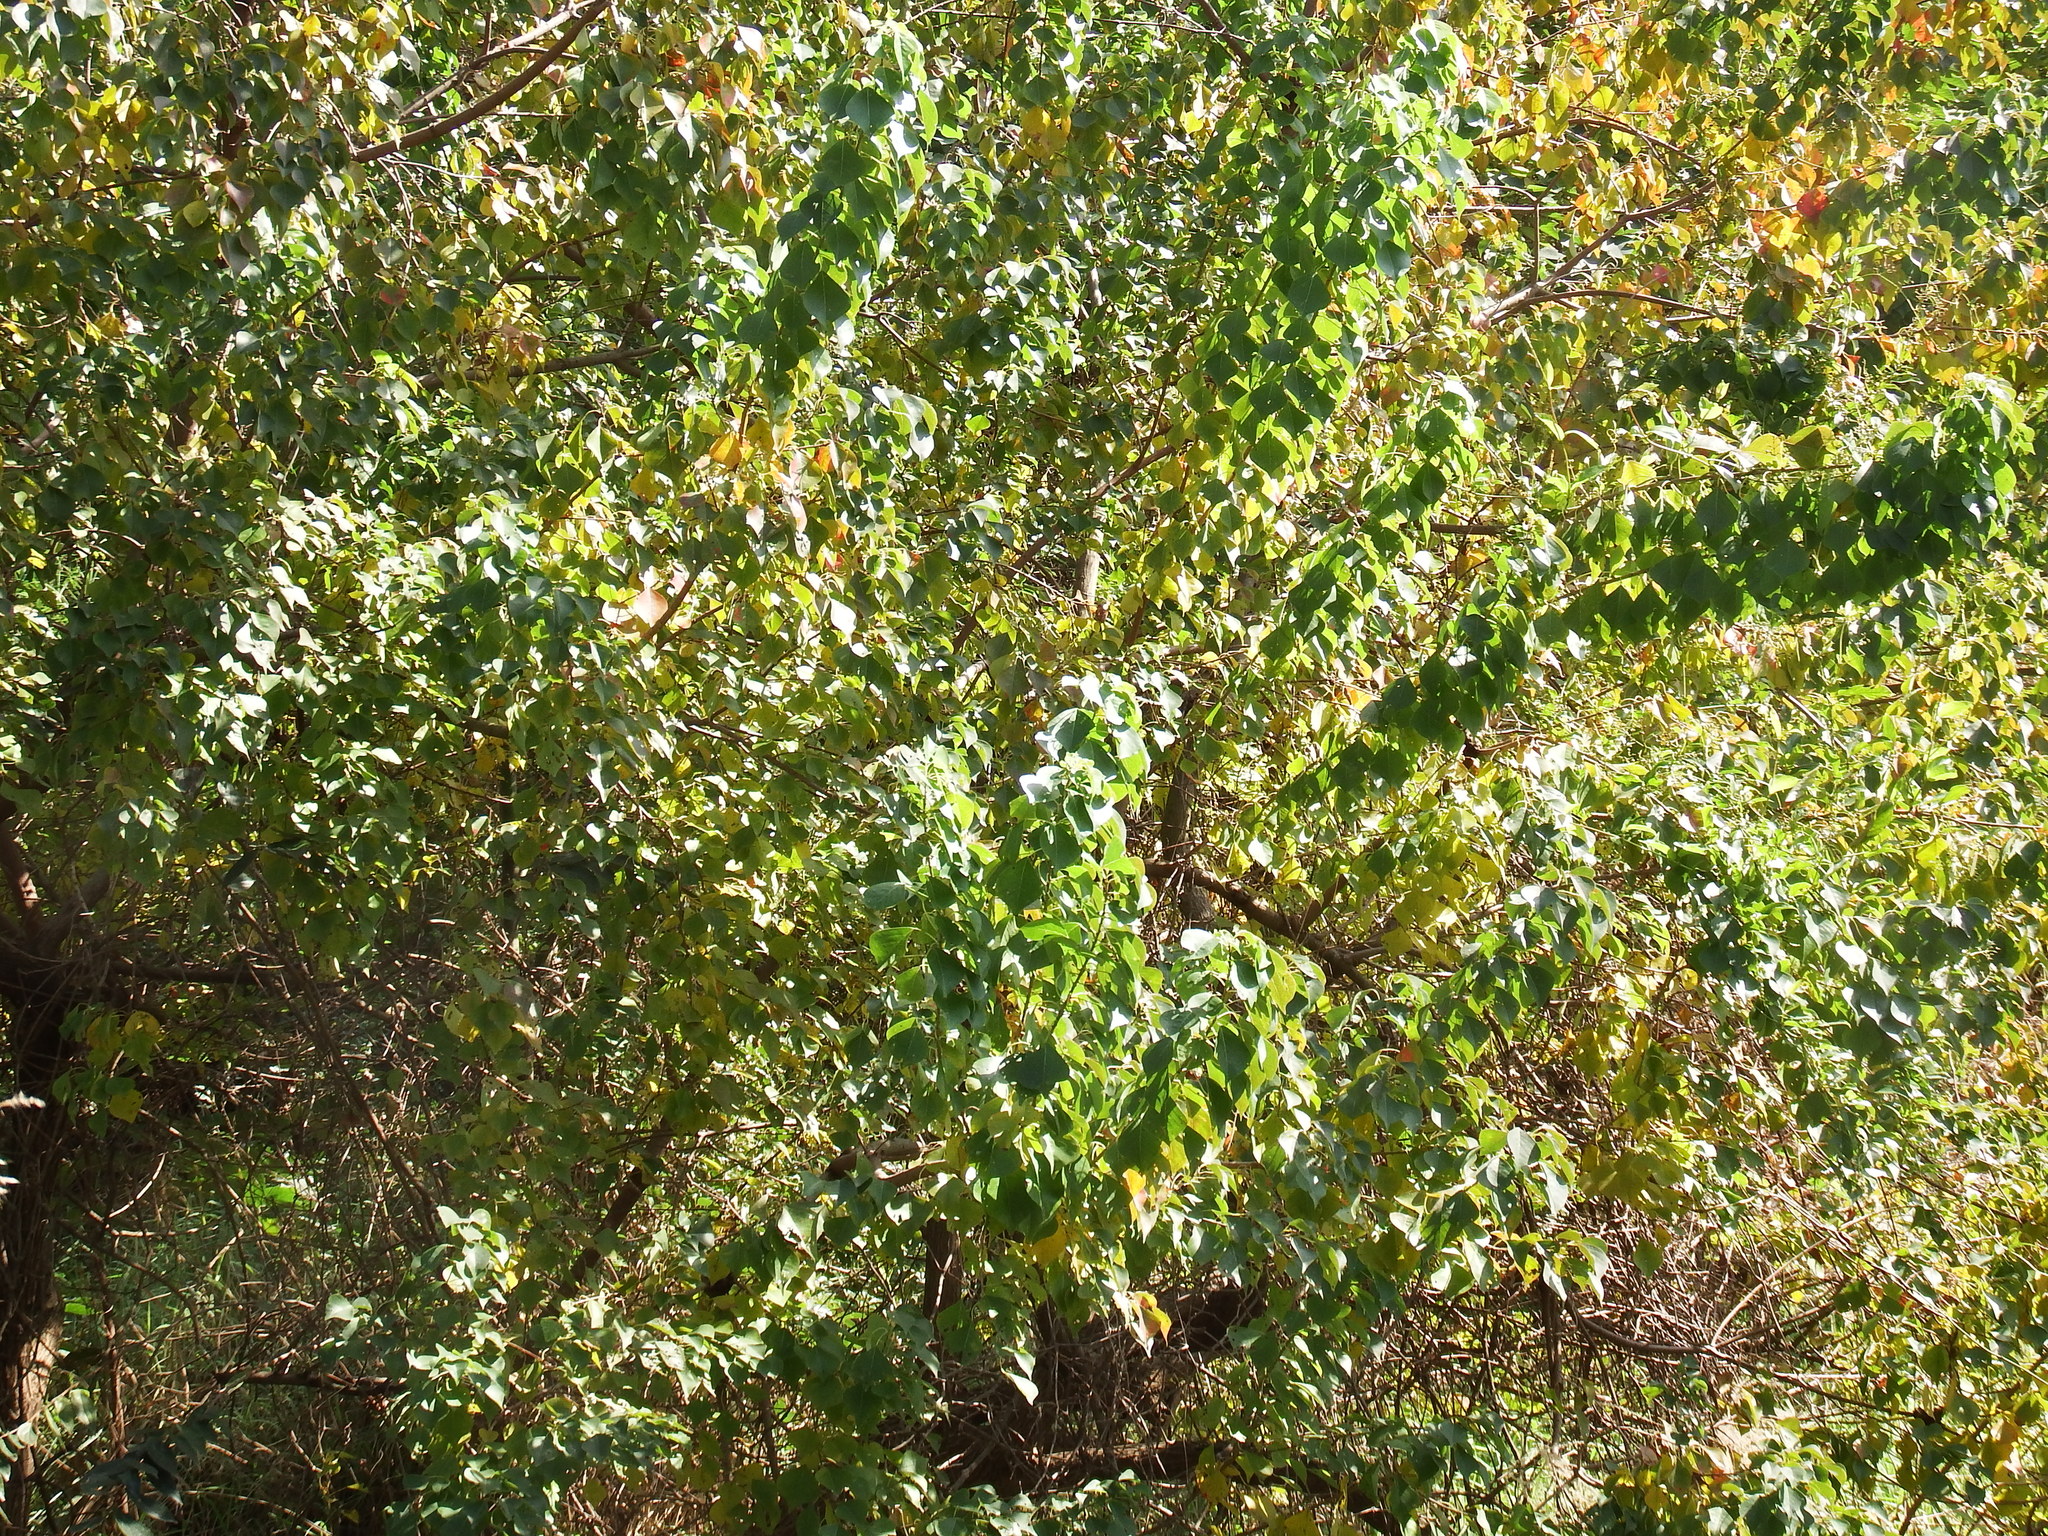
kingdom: Plantae
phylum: Tracheophyta
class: Magnoliopsida
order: Malpighiales
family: Euphorbiaceae
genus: Triadica
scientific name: Triadica sebifera
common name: Chinese tallow
